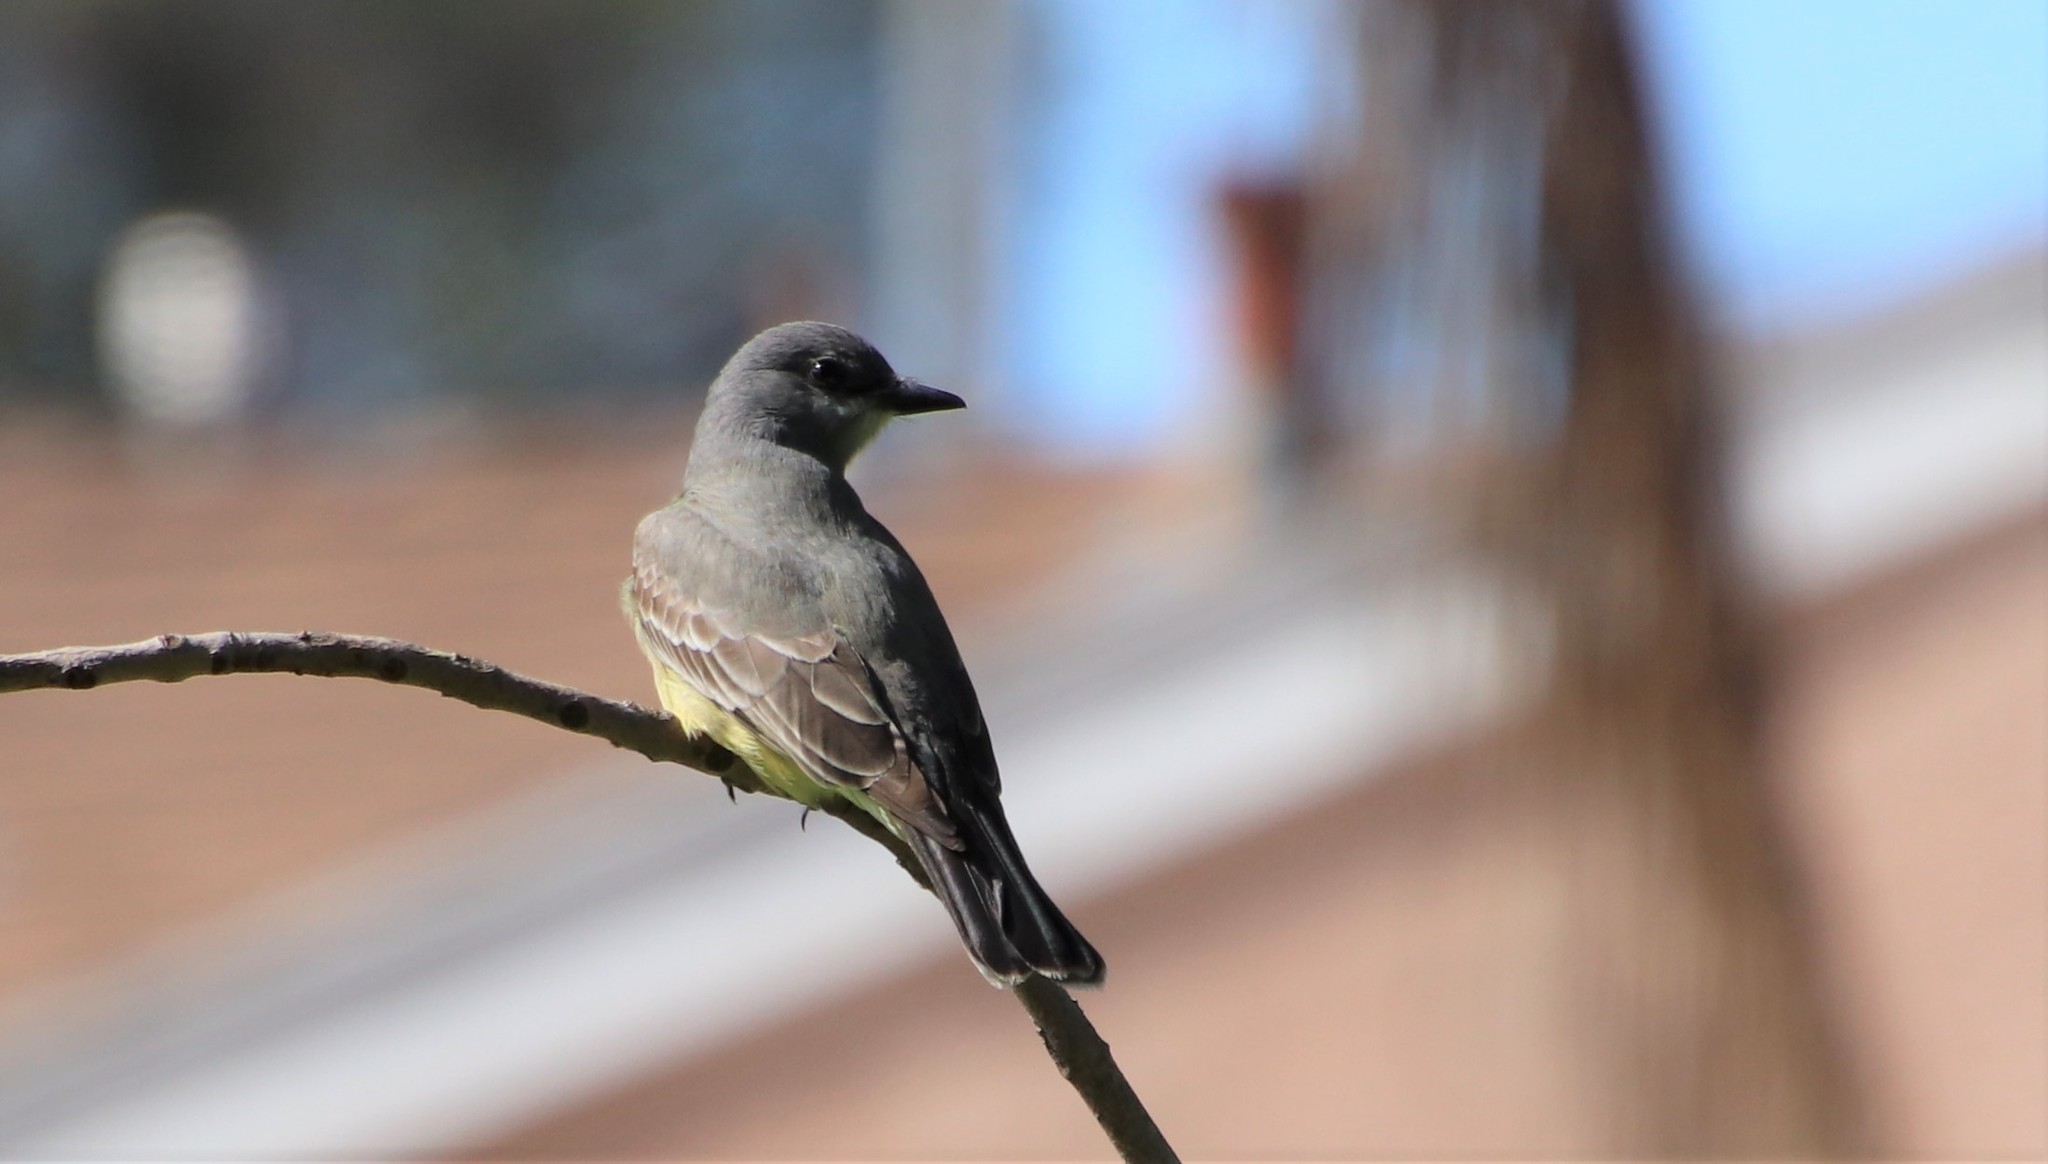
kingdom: Animalia
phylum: Chordata
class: Aves
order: Passeriformes
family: Tyrannidae
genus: Tyrannus
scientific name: Tyrannus vociferans
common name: Cassin's kingbird
